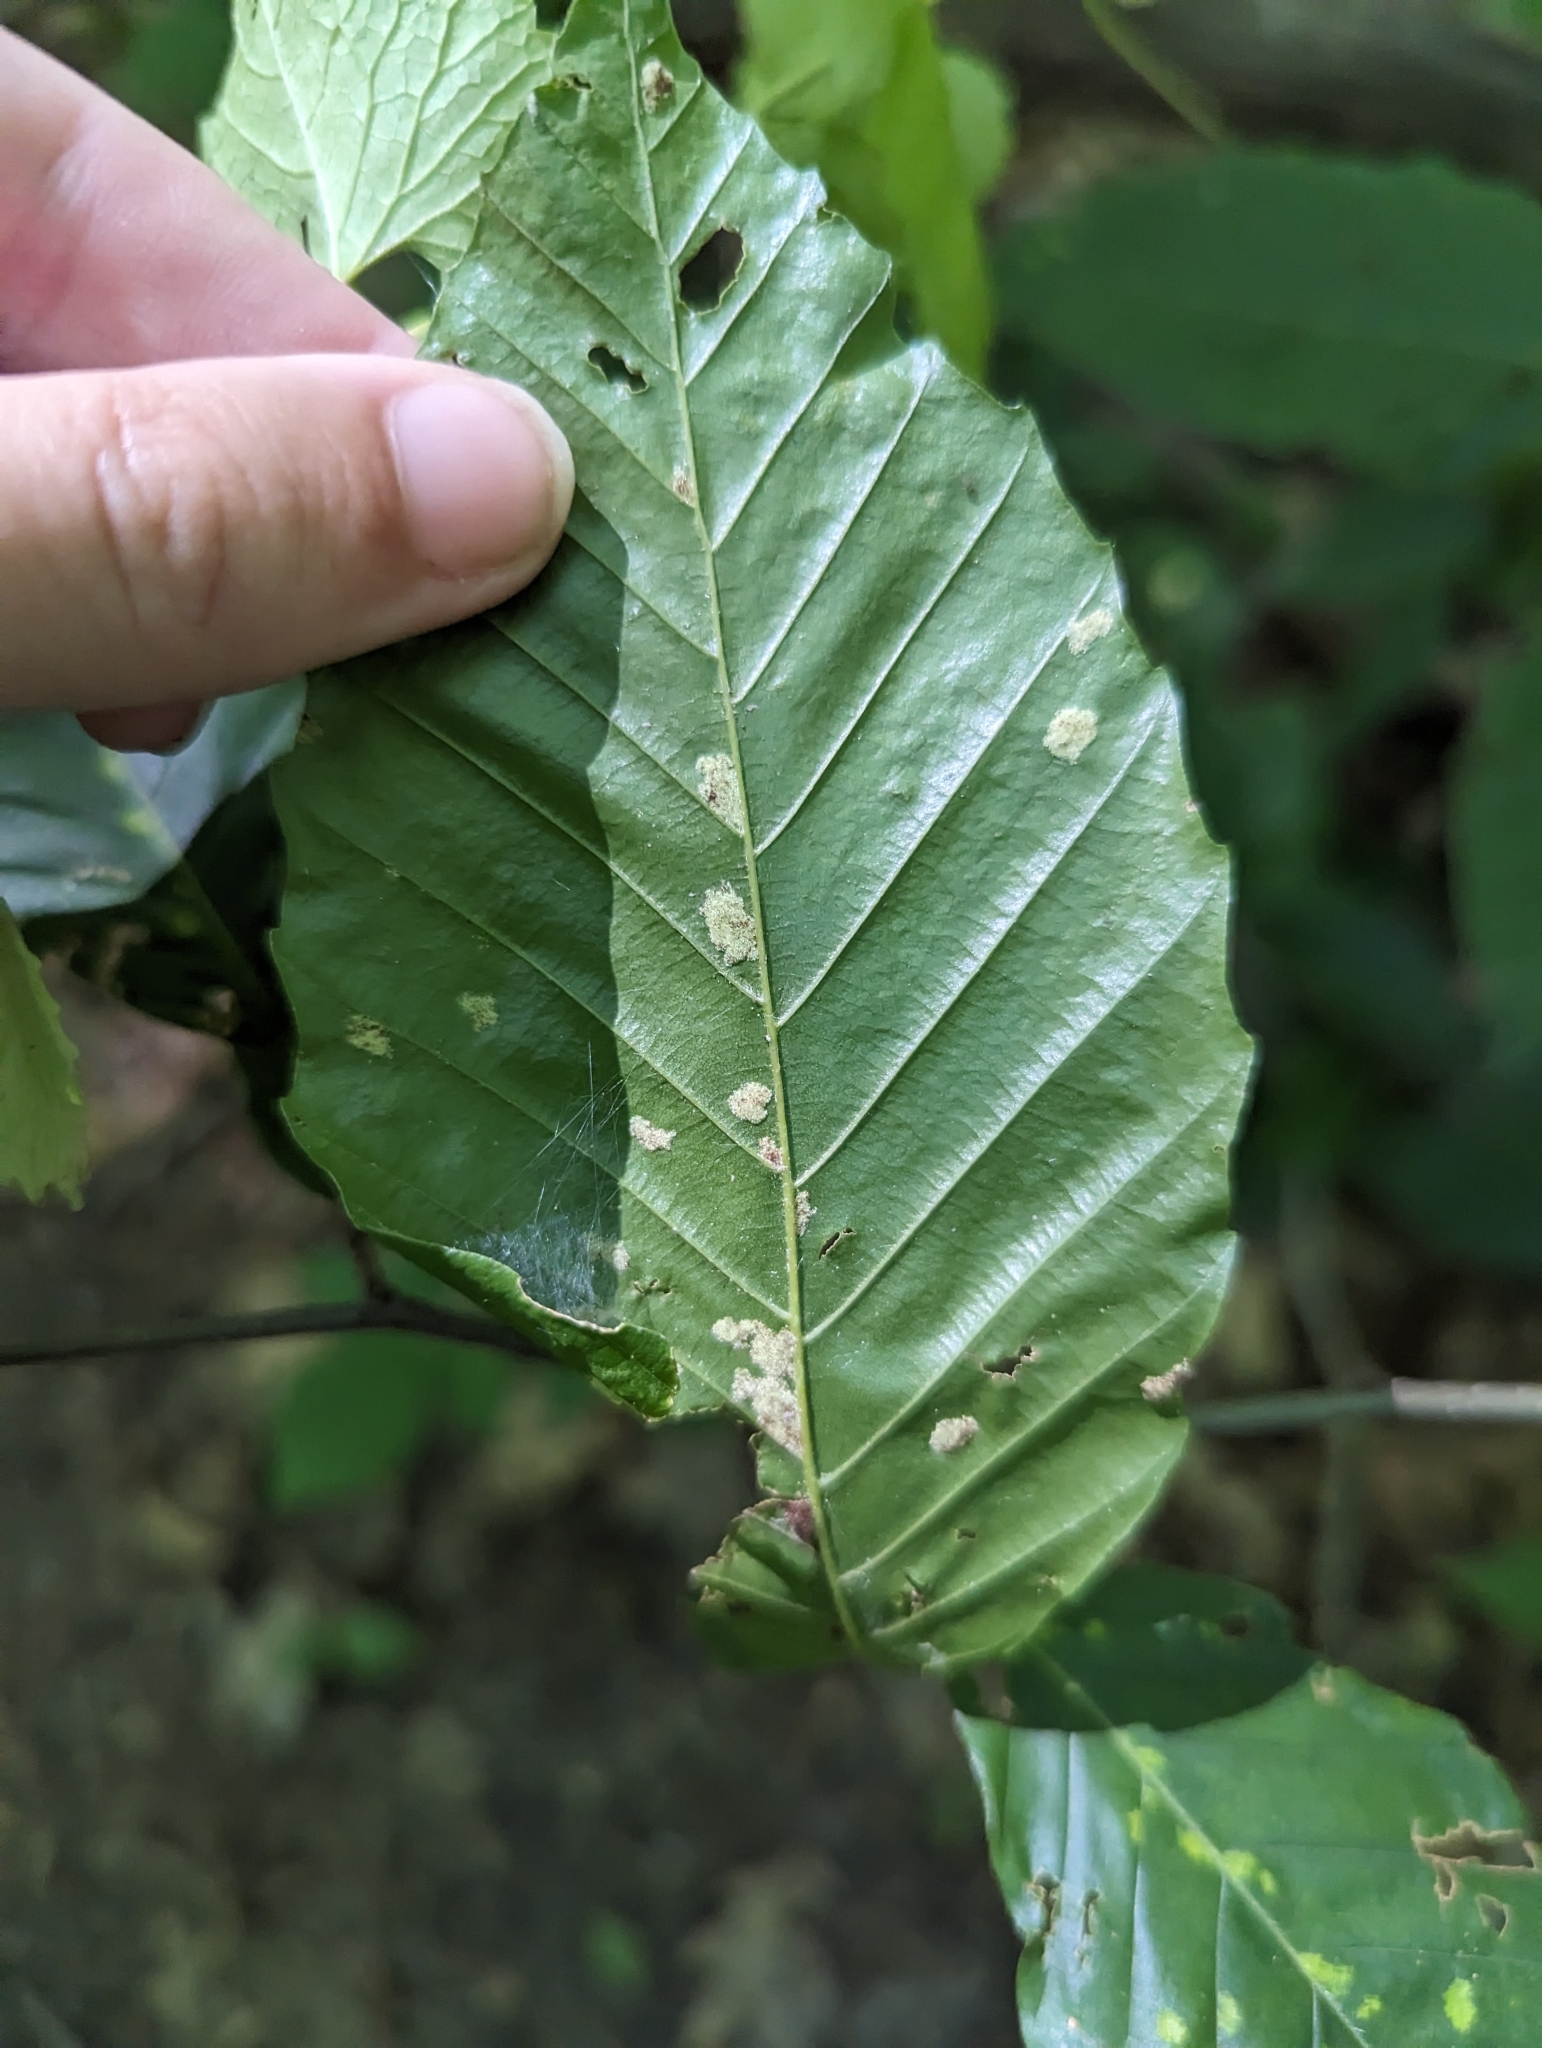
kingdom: Animalia
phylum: Arthropoda
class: Arachnida
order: Trombidiformes
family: Eriophyidae
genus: Acalitus
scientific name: Acalitus
